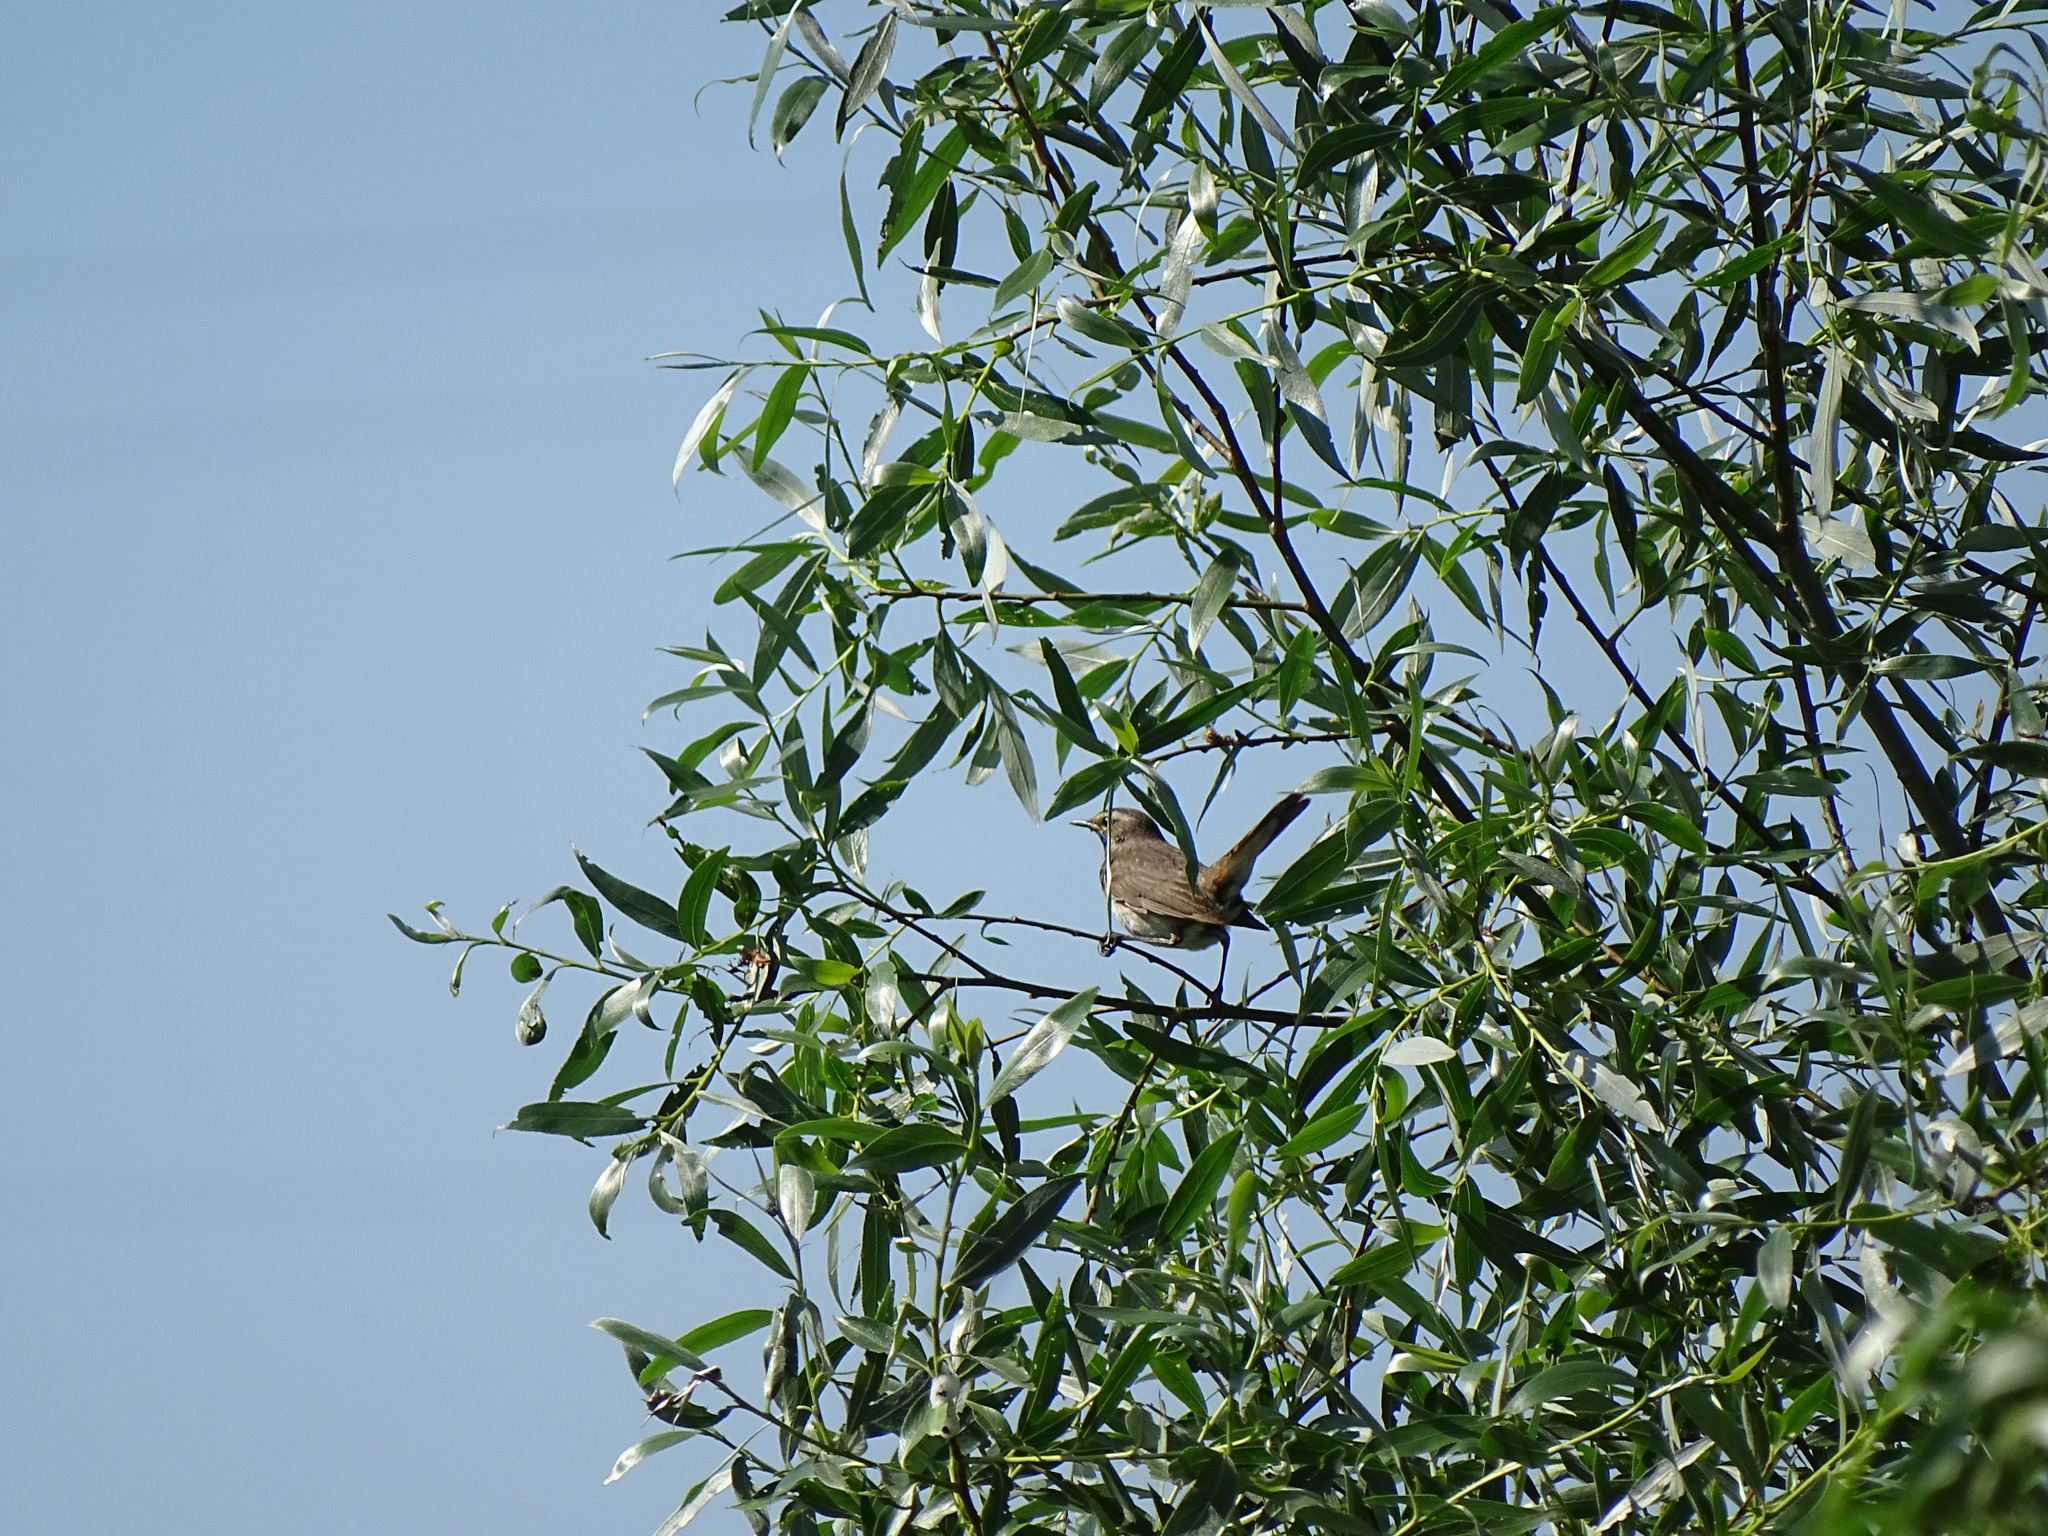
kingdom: Animalia
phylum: Chordata
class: Aves
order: Passeriformes
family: Muscicapidae
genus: Luscinia
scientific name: Luscinia svecica
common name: Bluethroat
